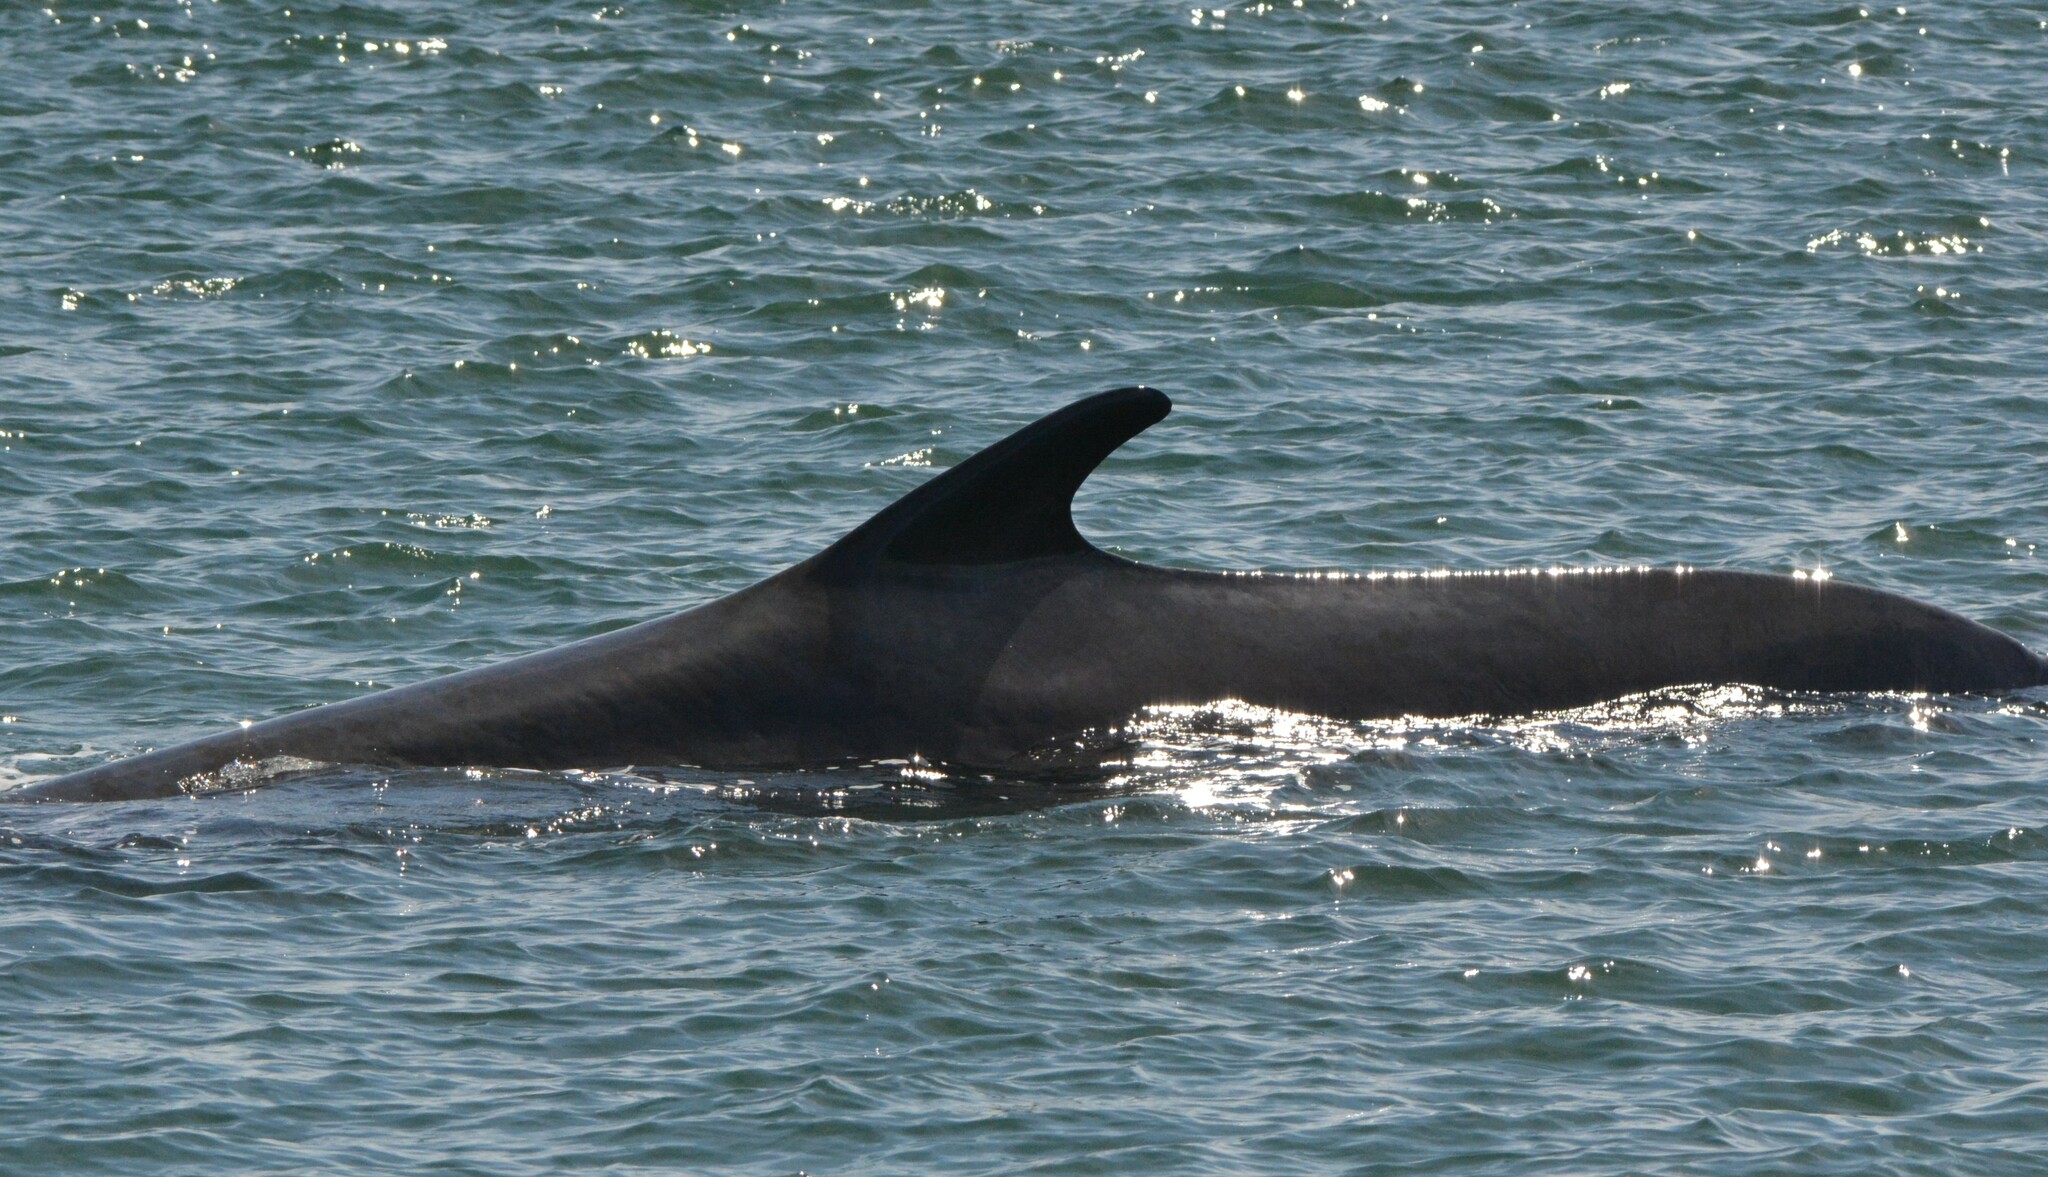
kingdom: Animalia
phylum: Chordata
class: Mammalia
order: Cetacea
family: Balaenopteridae
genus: Balaenoptera
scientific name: Balaenoptera physalus
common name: Fin whale
